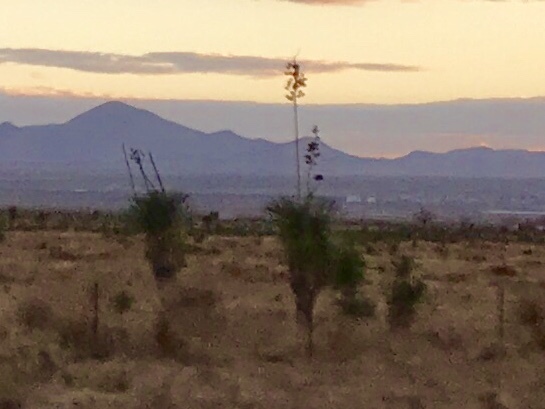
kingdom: Plantae
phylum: Tracheophyta
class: Liliopsida
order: Asparagales
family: Asparagaceae
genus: Yucca
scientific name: Yucca elata
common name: Palmella
